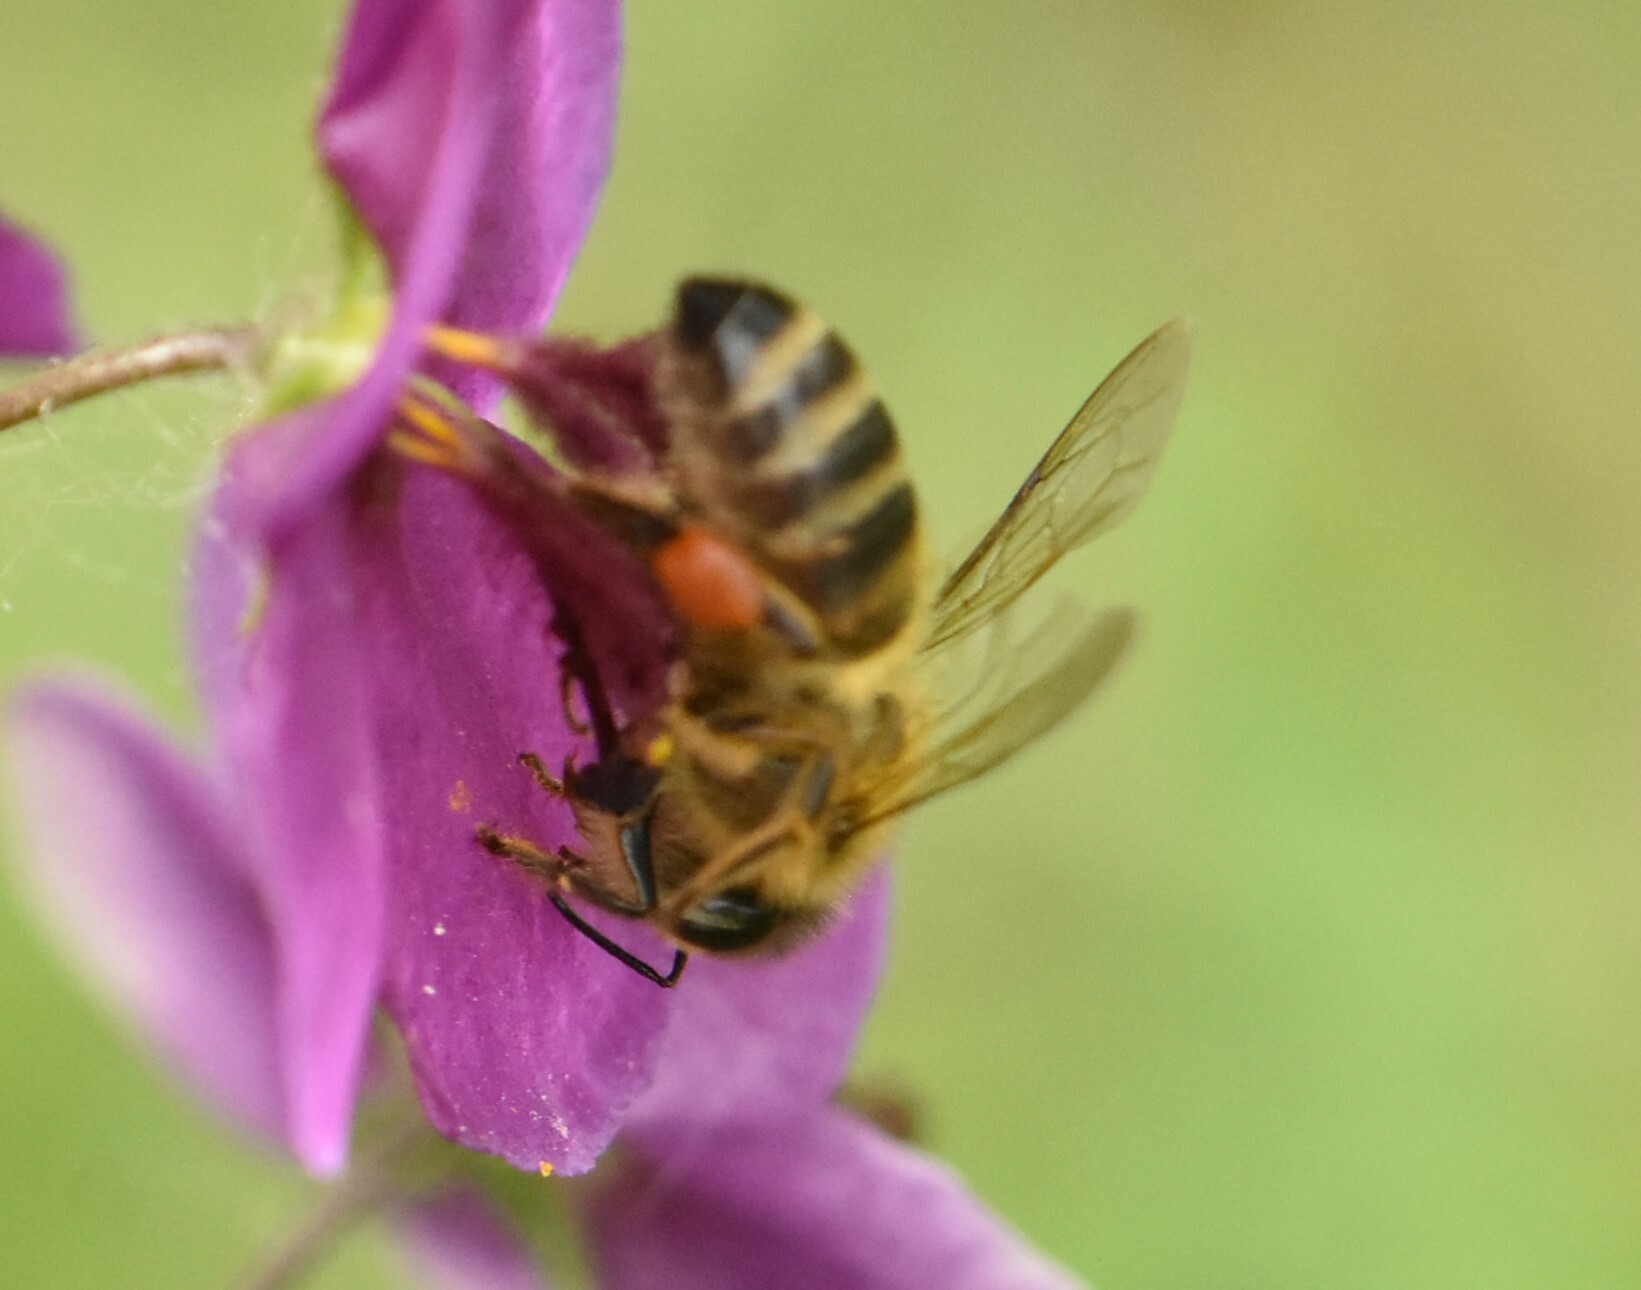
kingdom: Animalia
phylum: Arthropoda
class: Insecta
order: Hymenoptera
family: Apidae
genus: Apis
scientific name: Apis mellifera
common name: Honey bee
